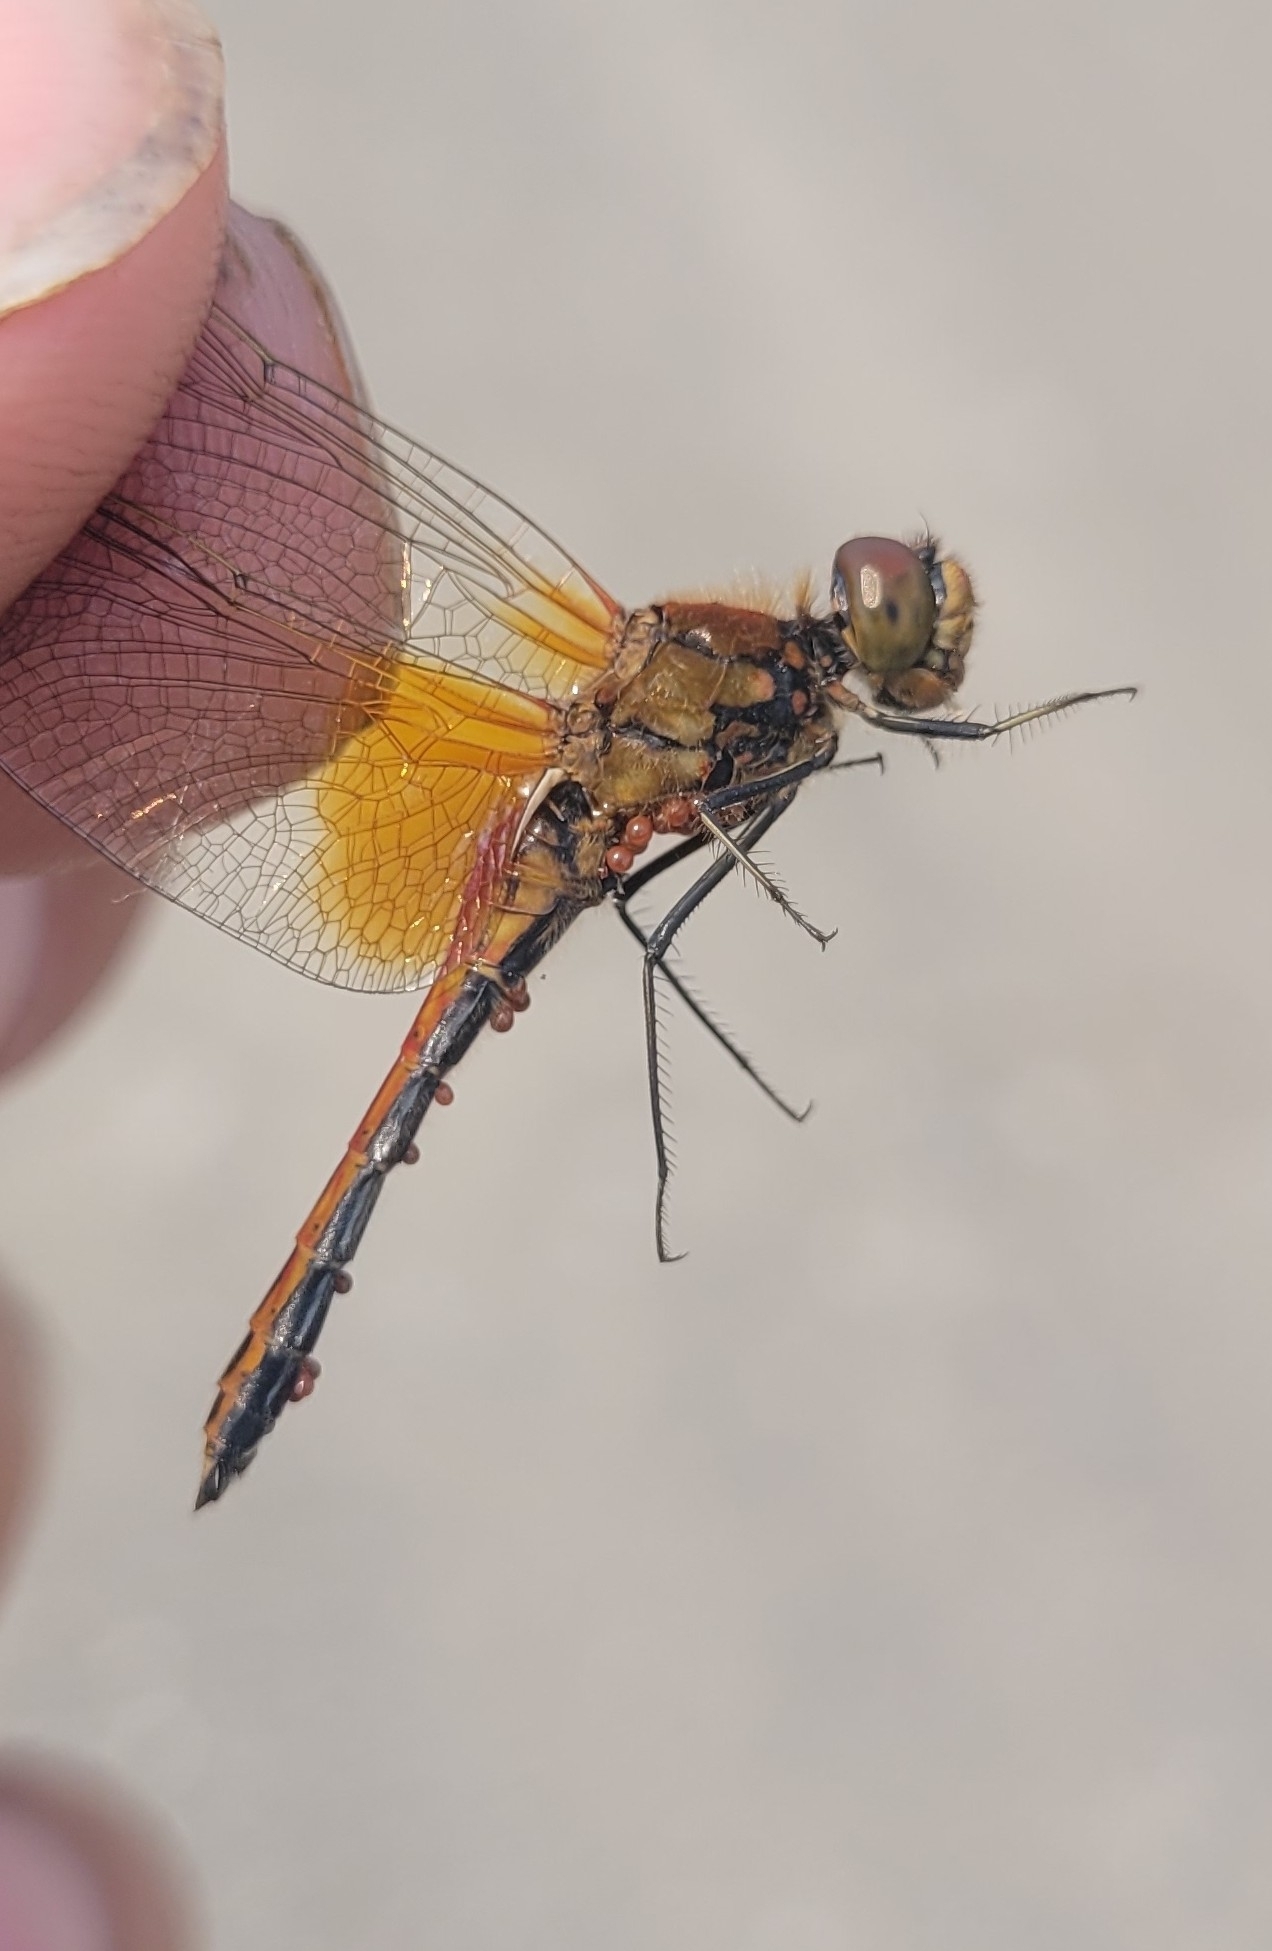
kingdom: Animalia
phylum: Arthropoda
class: Insecta
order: Odonata
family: Libellulidae
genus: Sympetrum
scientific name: Sympetrum flaveolum
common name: Yellow-winged darter
